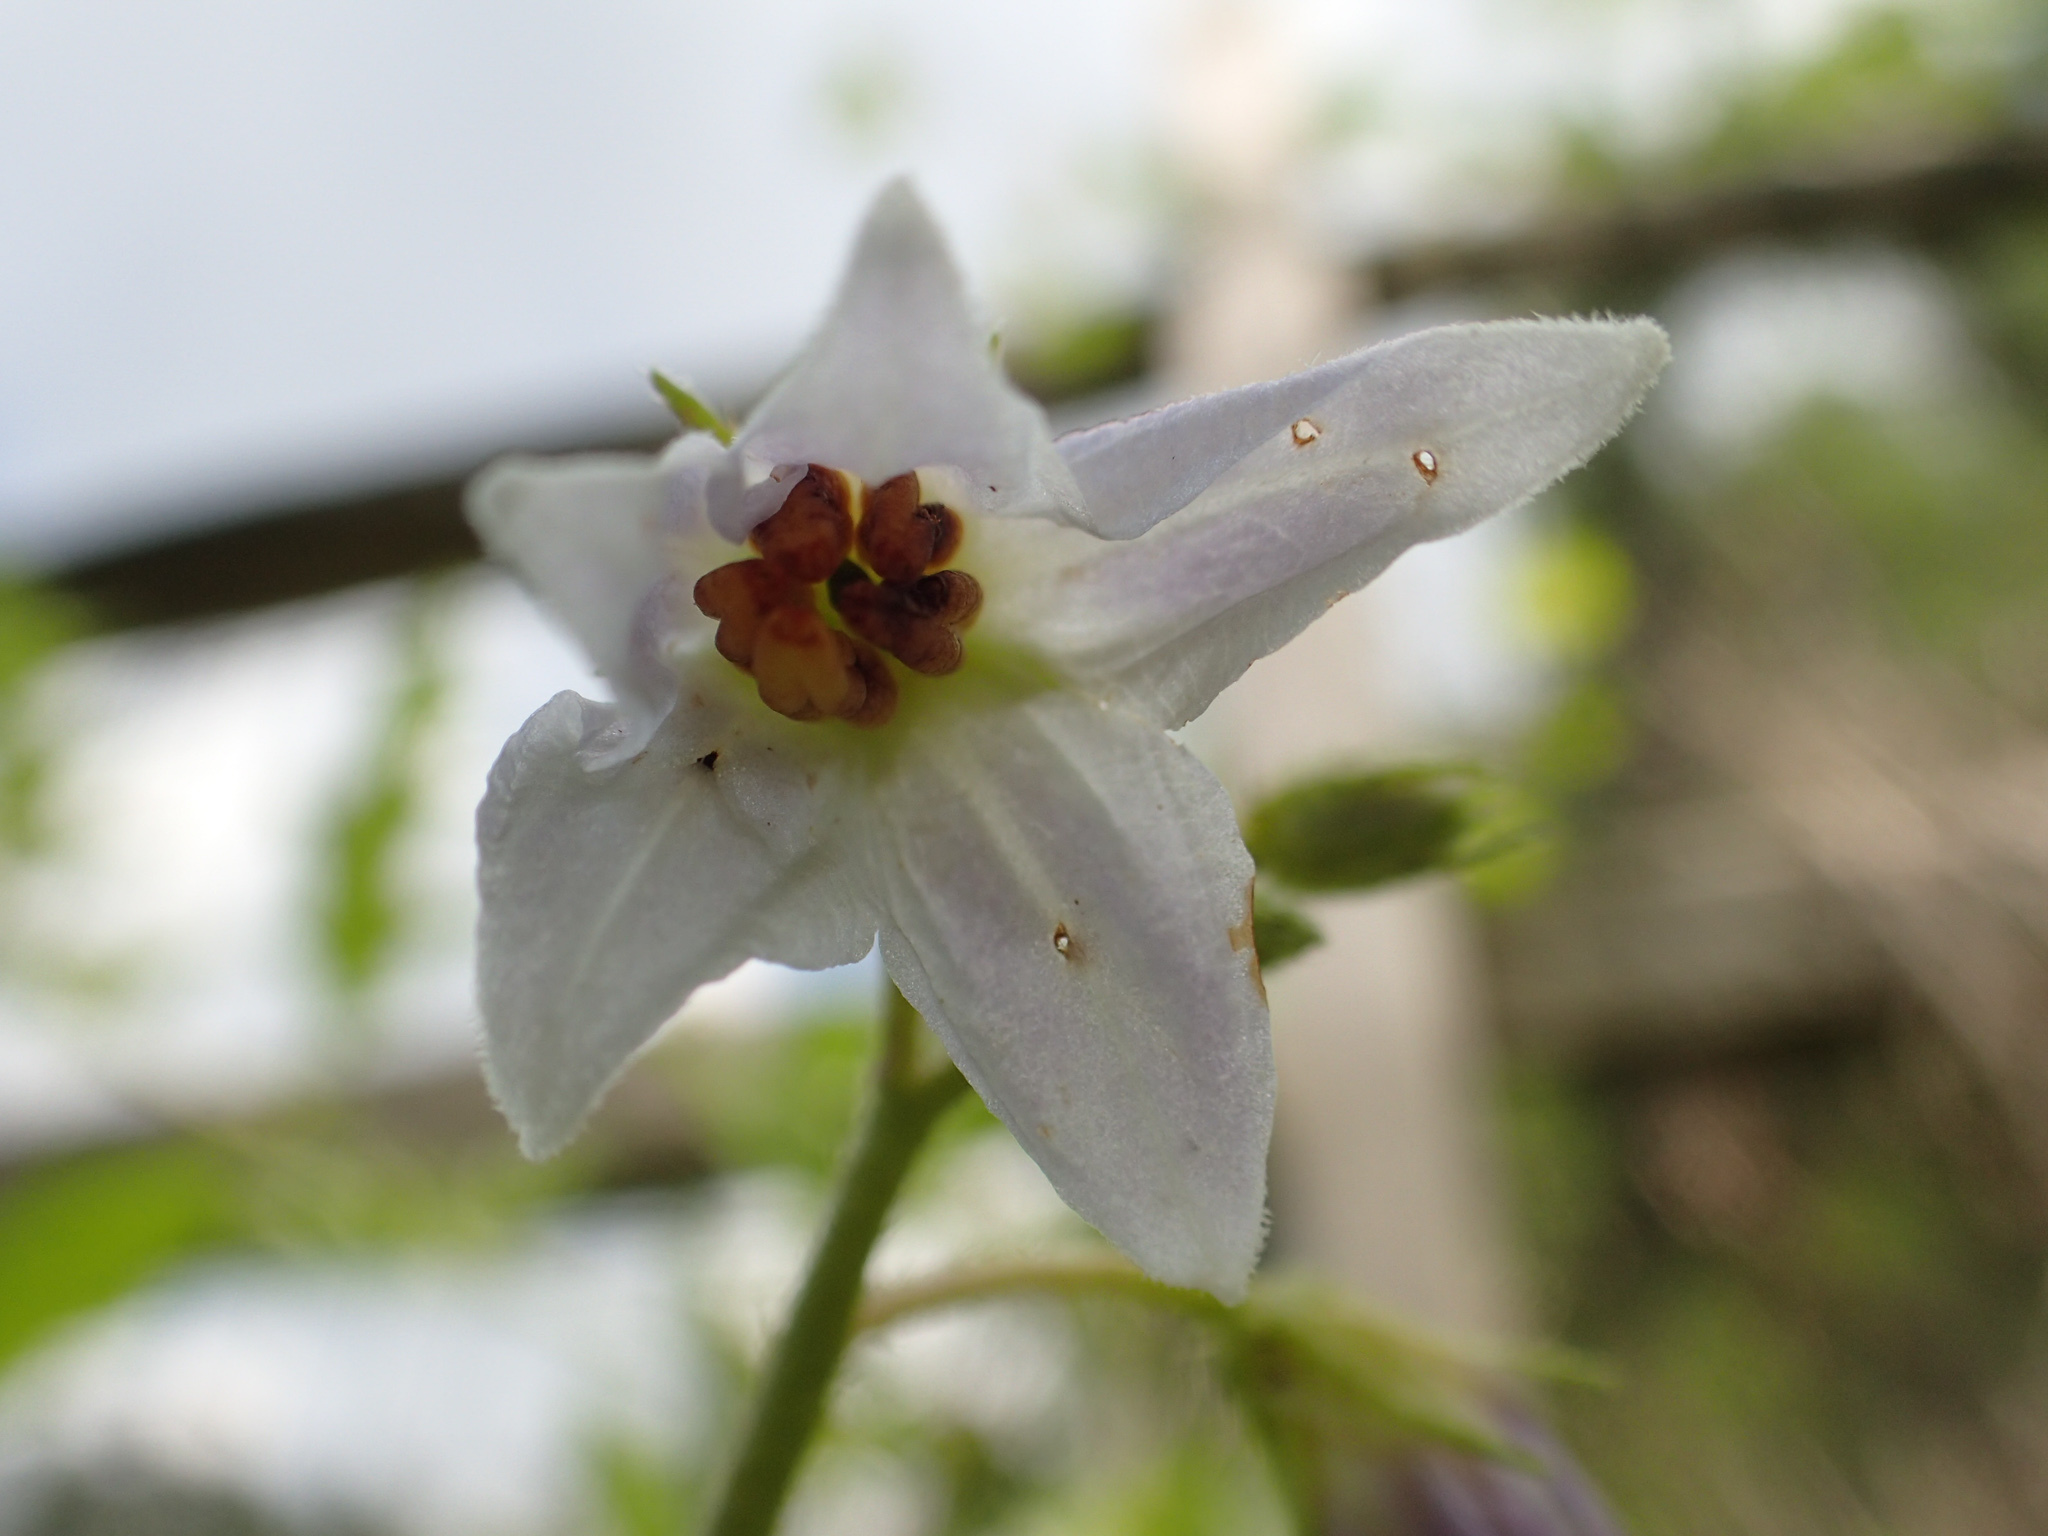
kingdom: Plantae
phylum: Tracheophyta
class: Magnoliopsida
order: Solanales
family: Solanaceae
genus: Solanum
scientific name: Solanum carolinense
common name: Horse-nettle
